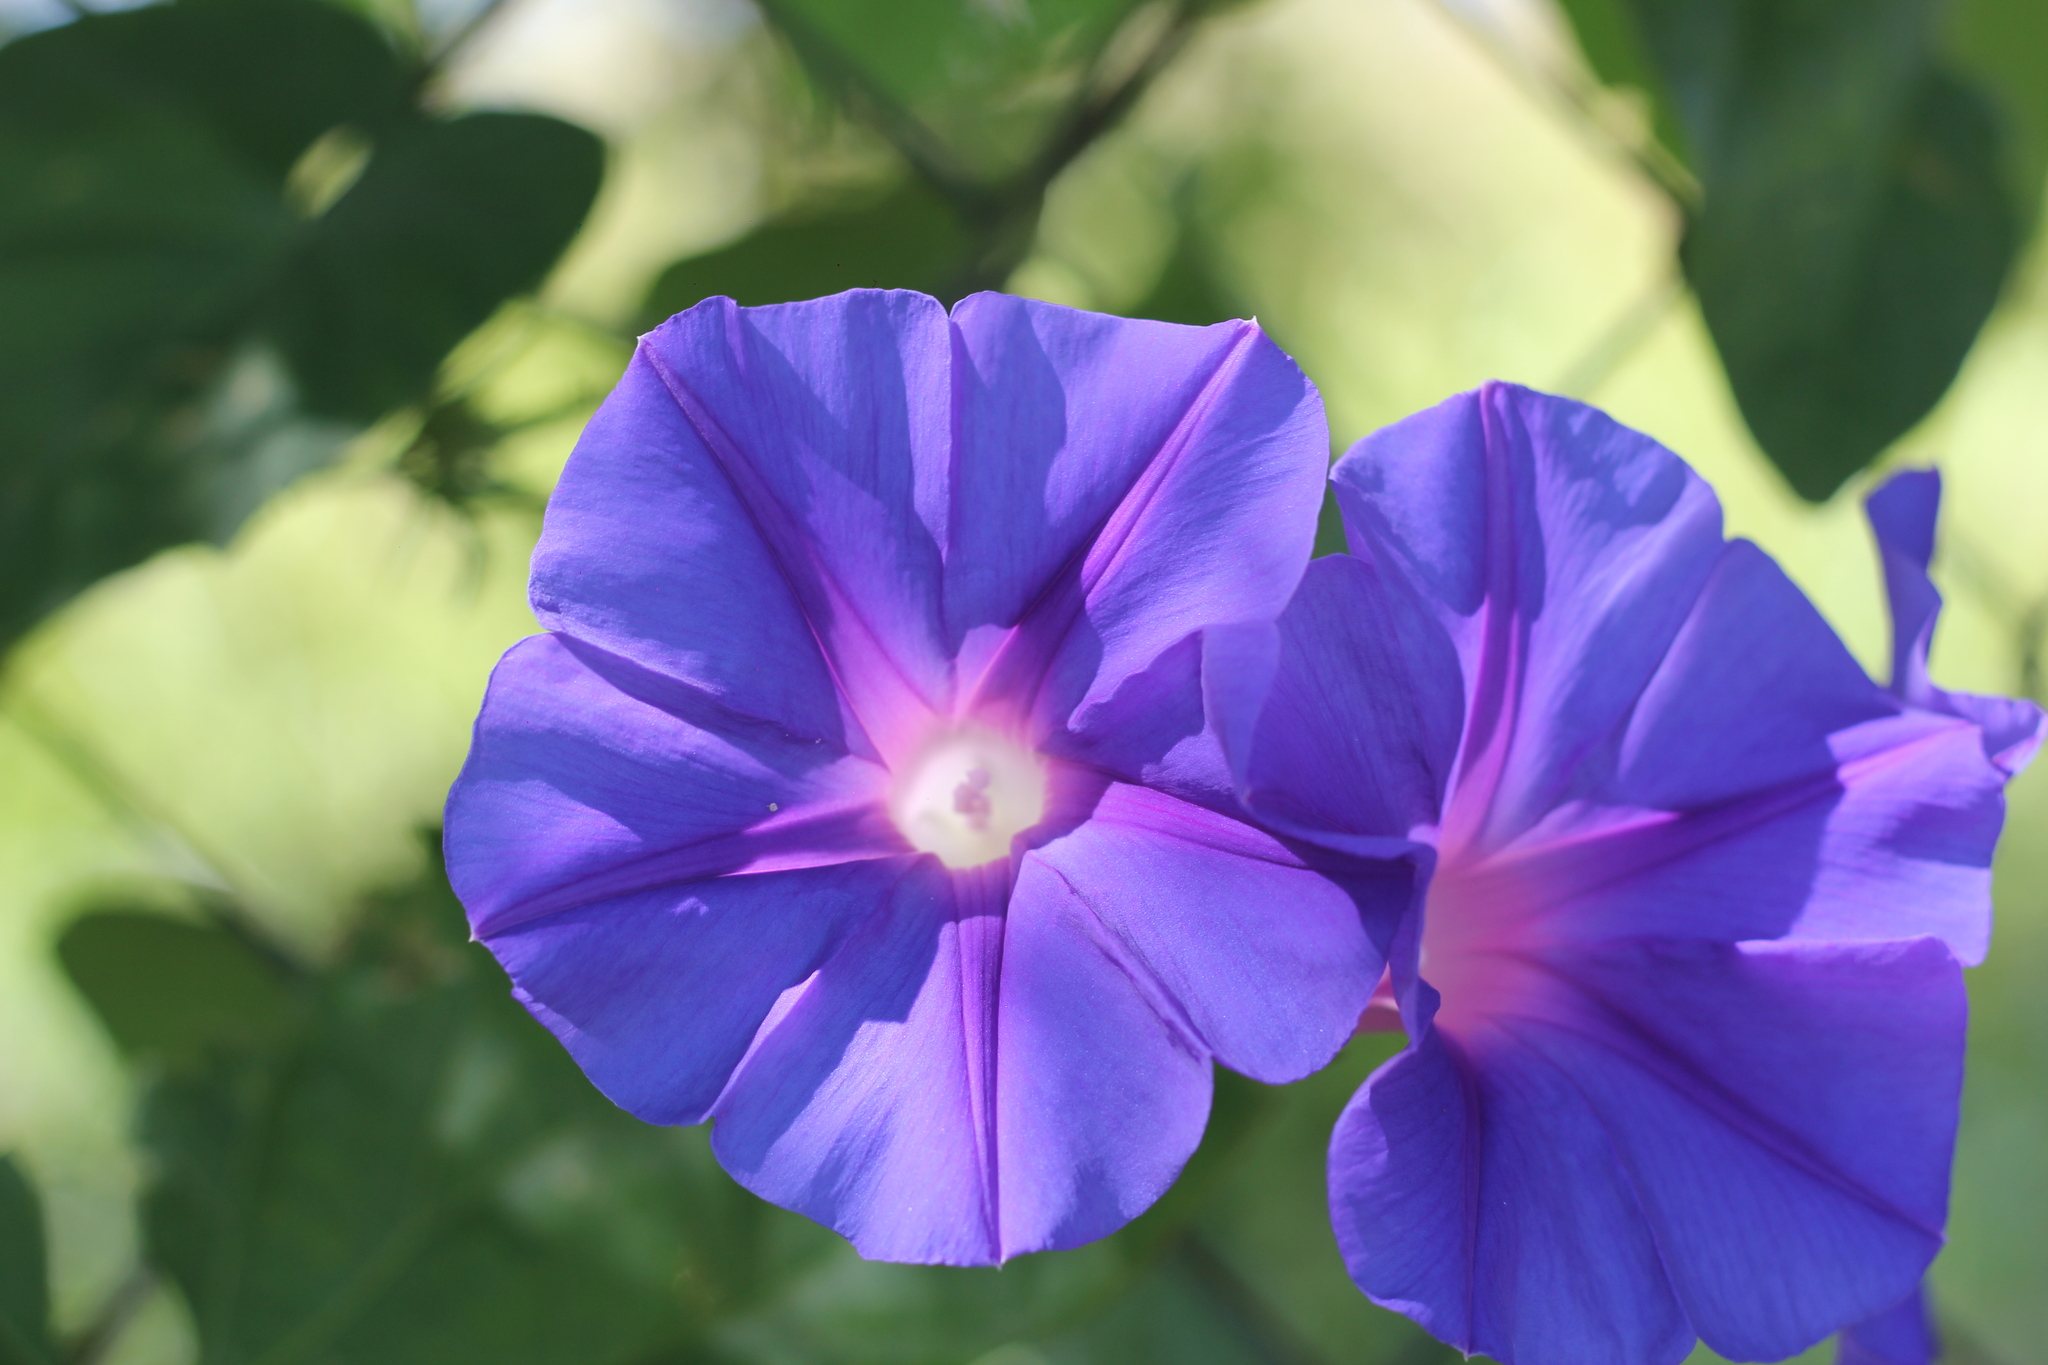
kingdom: Plantae
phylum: Tracheophyta
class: Magnoliopsida
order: Solanales
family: Convolvulaceae
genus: Ipomoea
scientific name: Ipomoea indica
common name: Blue dawnflower
